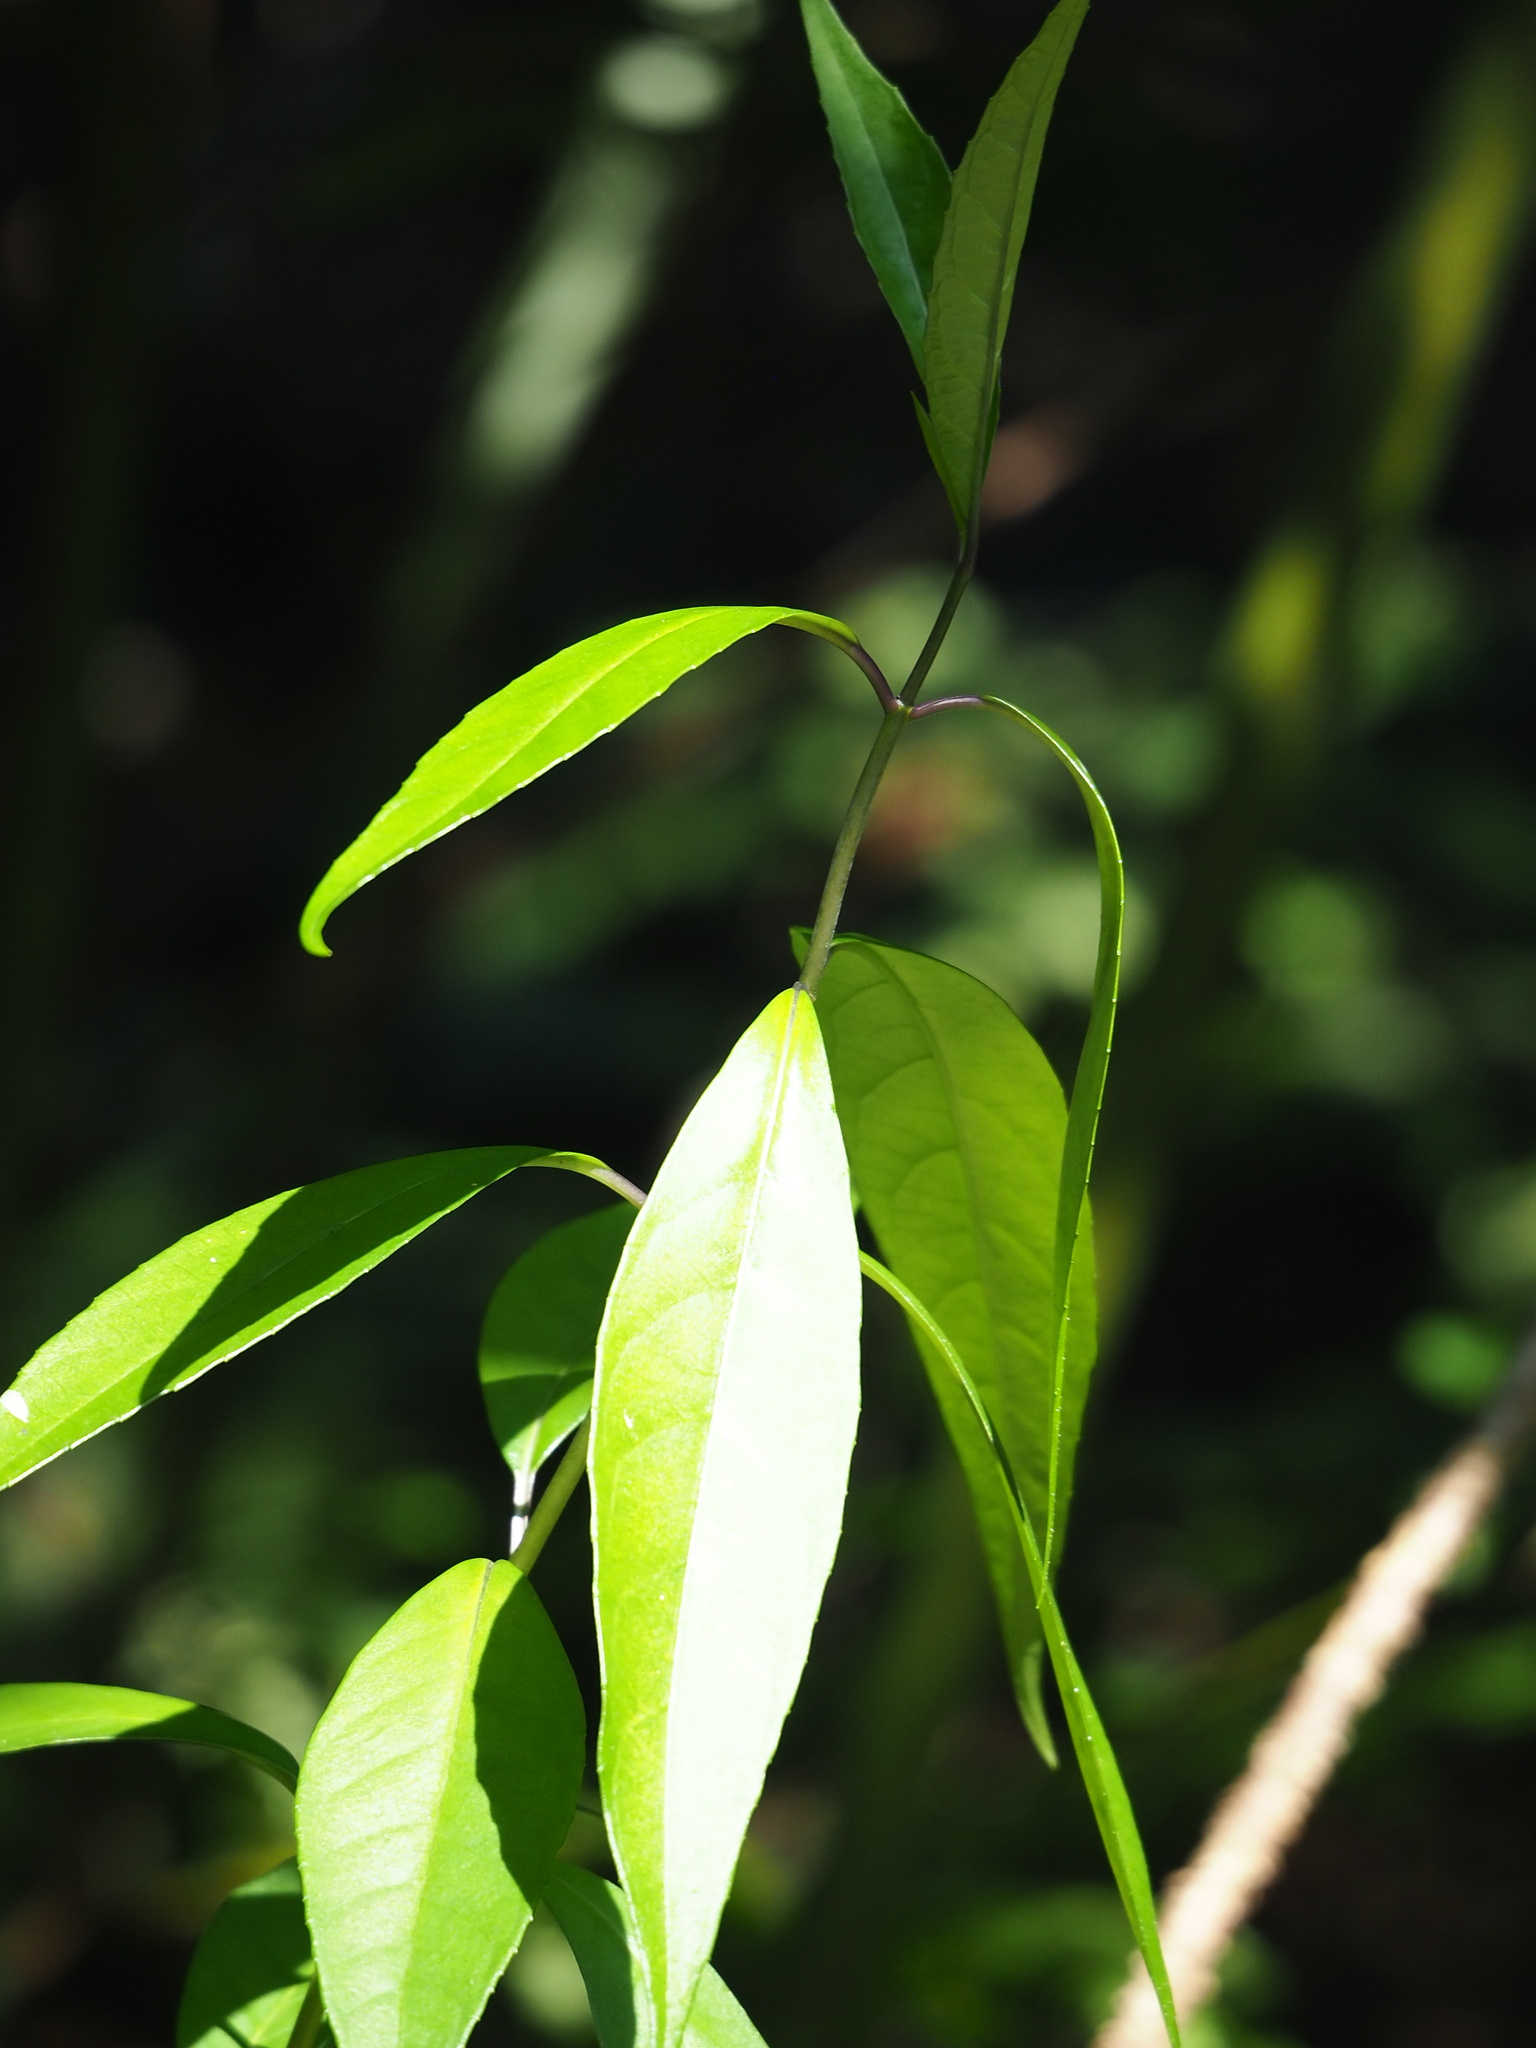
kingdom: Plantae
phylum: Tracheophyta
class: Magnoliopsida
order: Cornales
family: Hydrangeaceae
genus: Hydrangea
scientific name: Hydrangea chinensis
